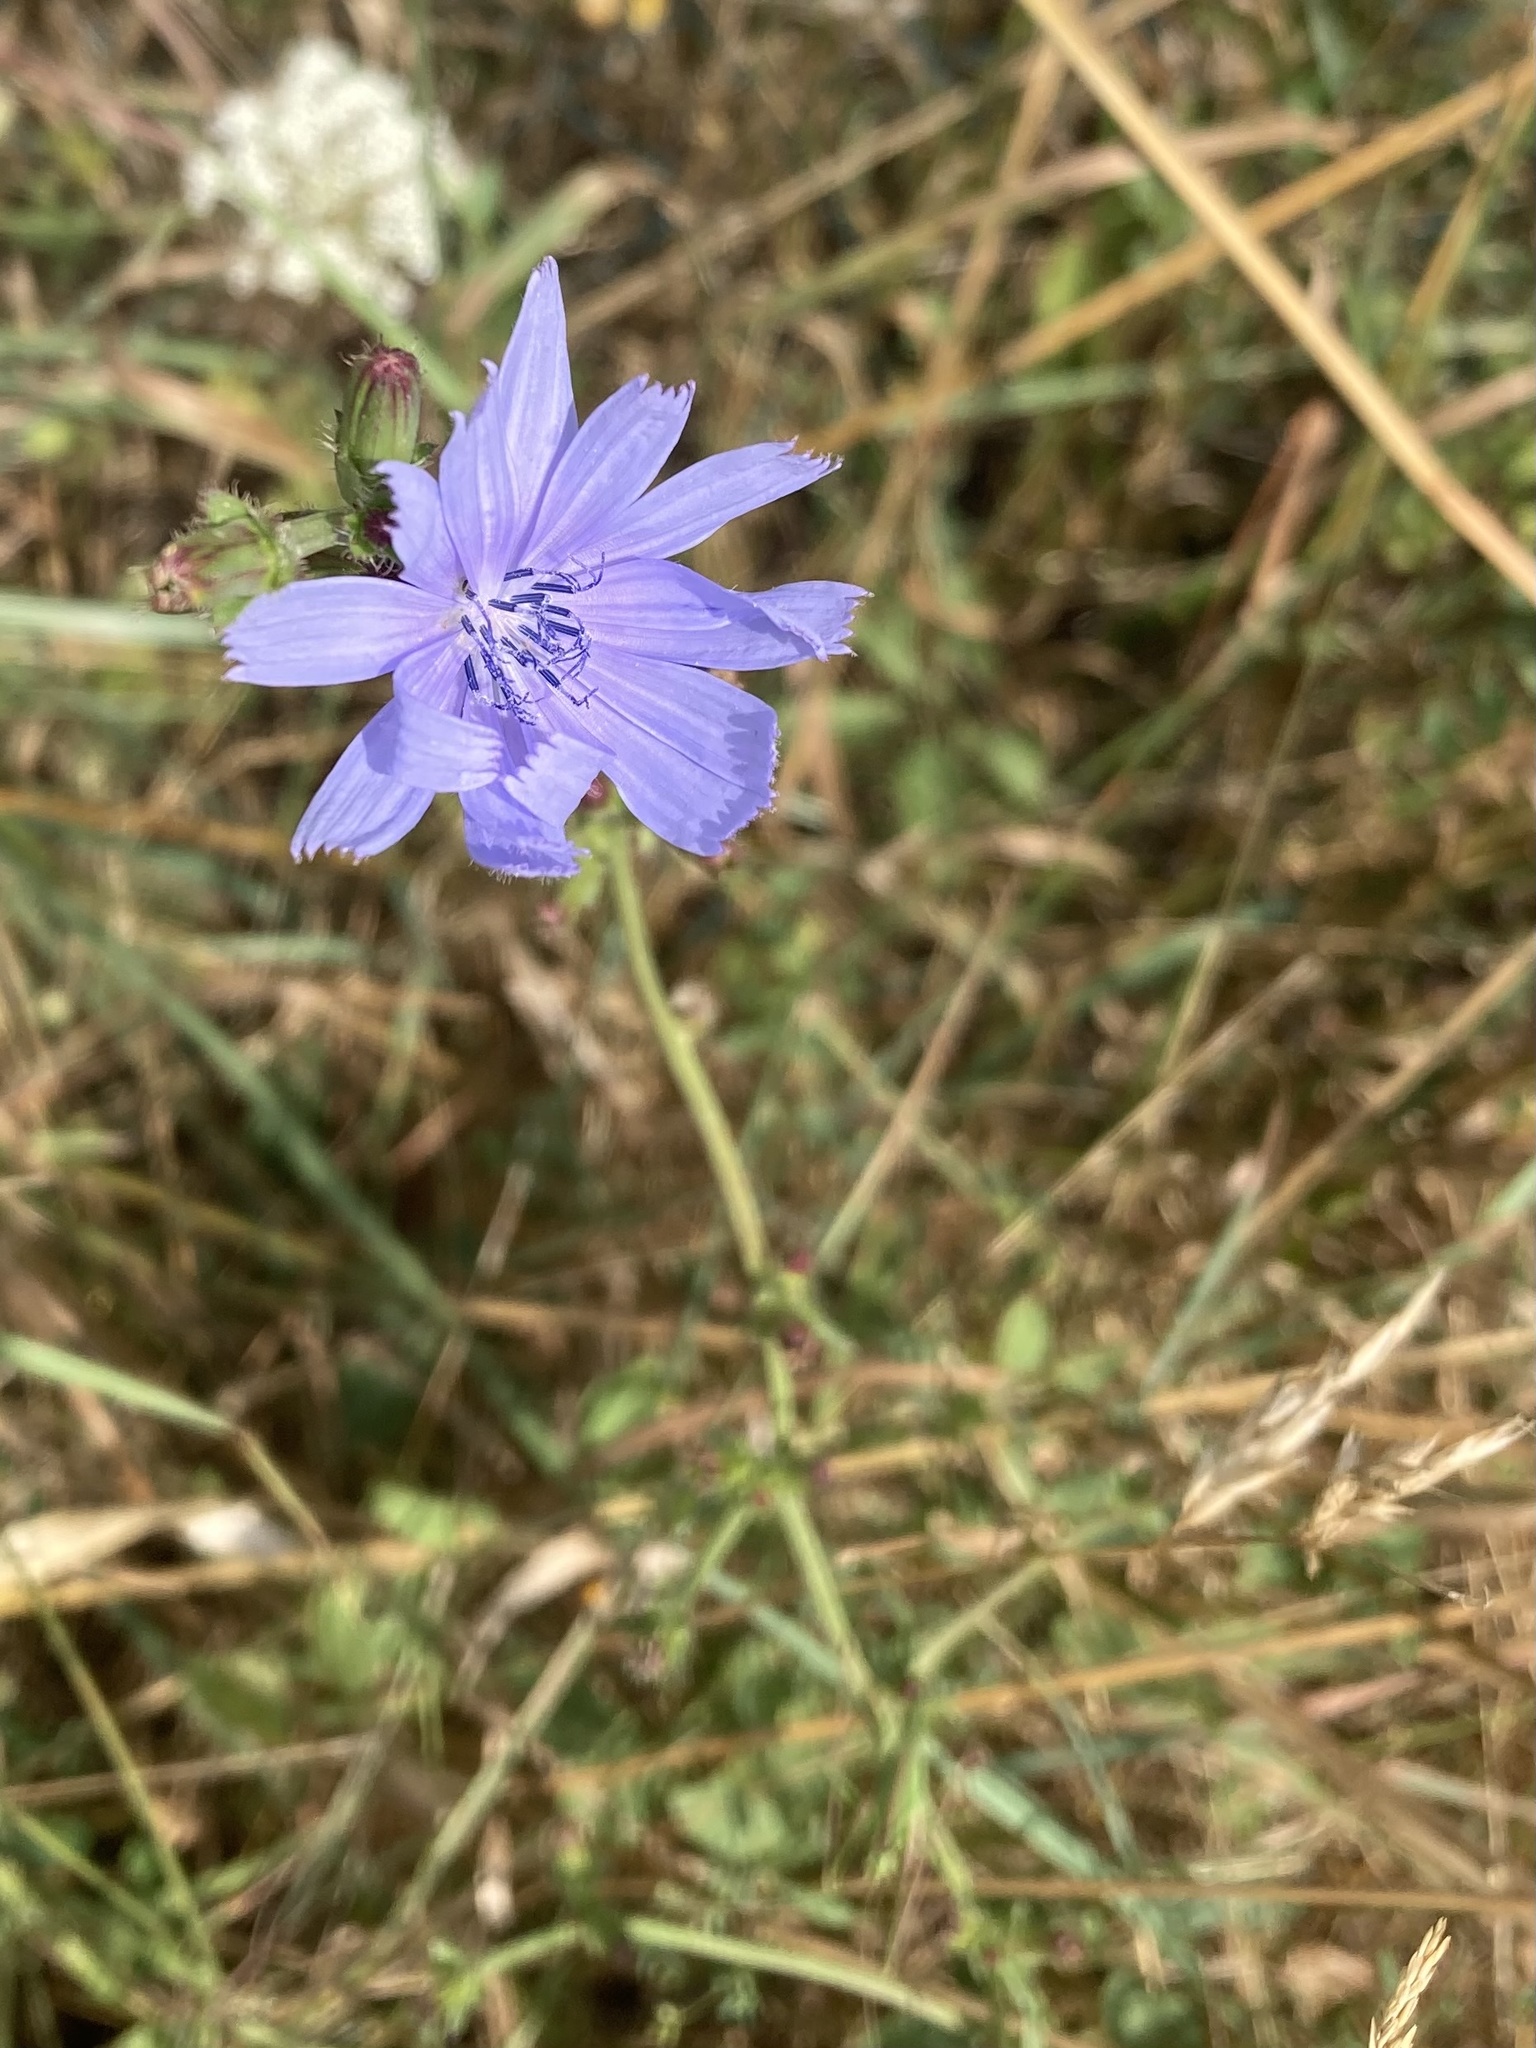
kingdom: Plantae
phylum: Tracheophyta
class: Magnoliopsida
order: Asterales
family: Asteraceae
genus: Cichorium
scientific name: Cichorium intybus
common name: Chicory
